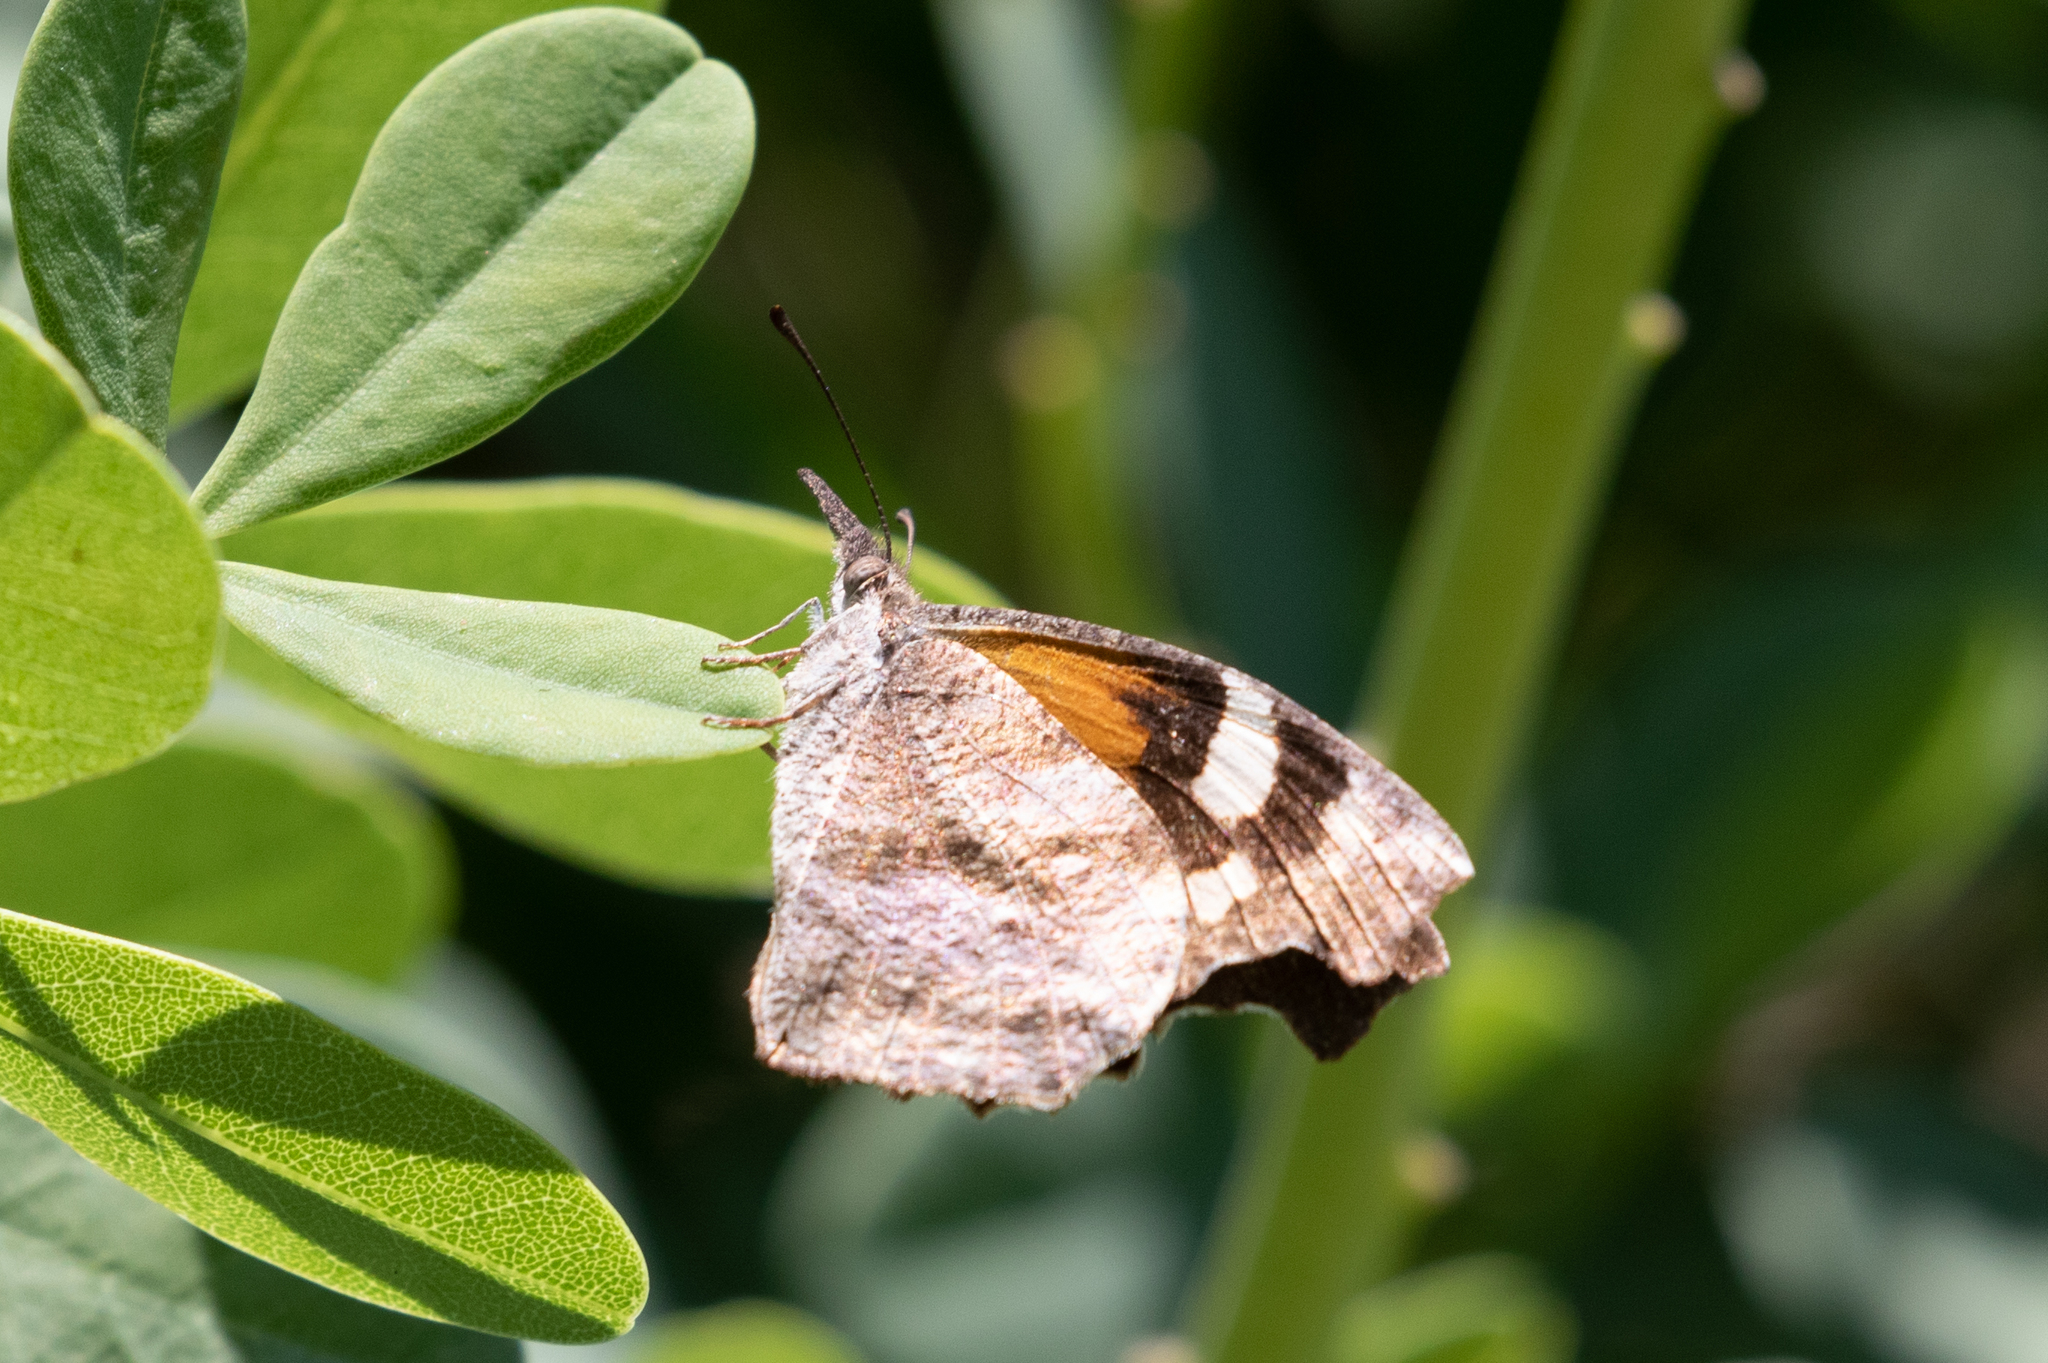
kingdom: Animalia
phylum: Arthropoda
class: Insecta
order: Lepidoptera
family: Nymphalidae
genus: Libytheana
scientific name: Libytheana carinenta
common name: American snout
